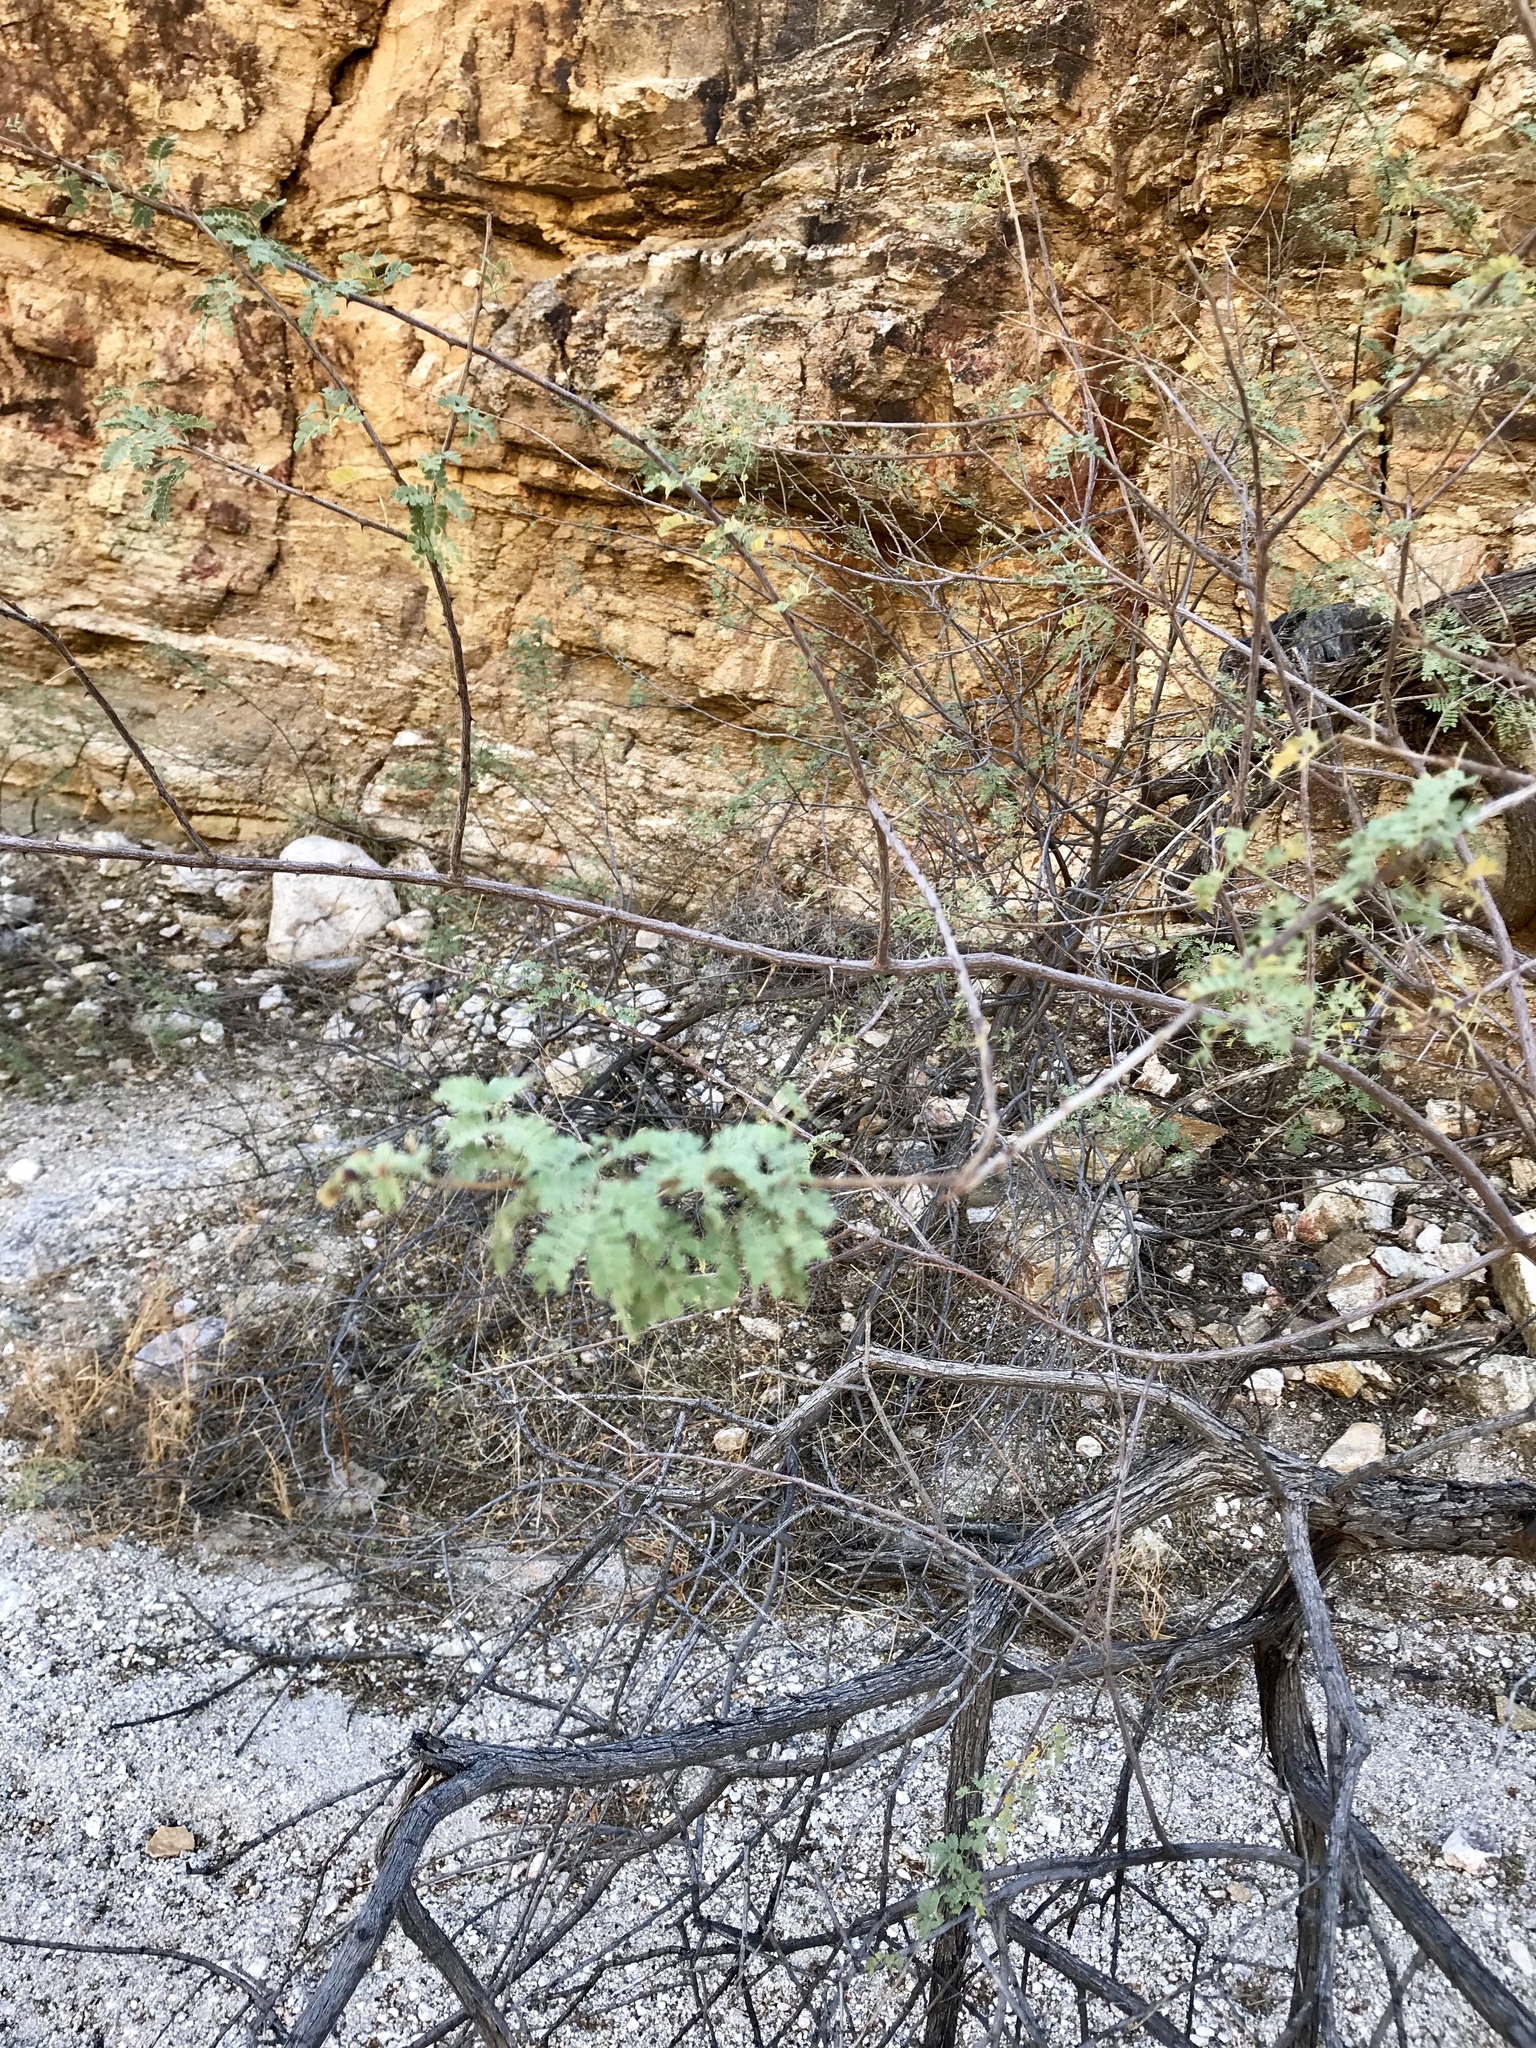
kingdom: Plantae
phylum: Tracheophyta
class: Magnoliopsida
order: Fabales
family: Fabaceae
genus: Senegalia
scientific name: Senegalia greggii
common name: Texas-mimosa
